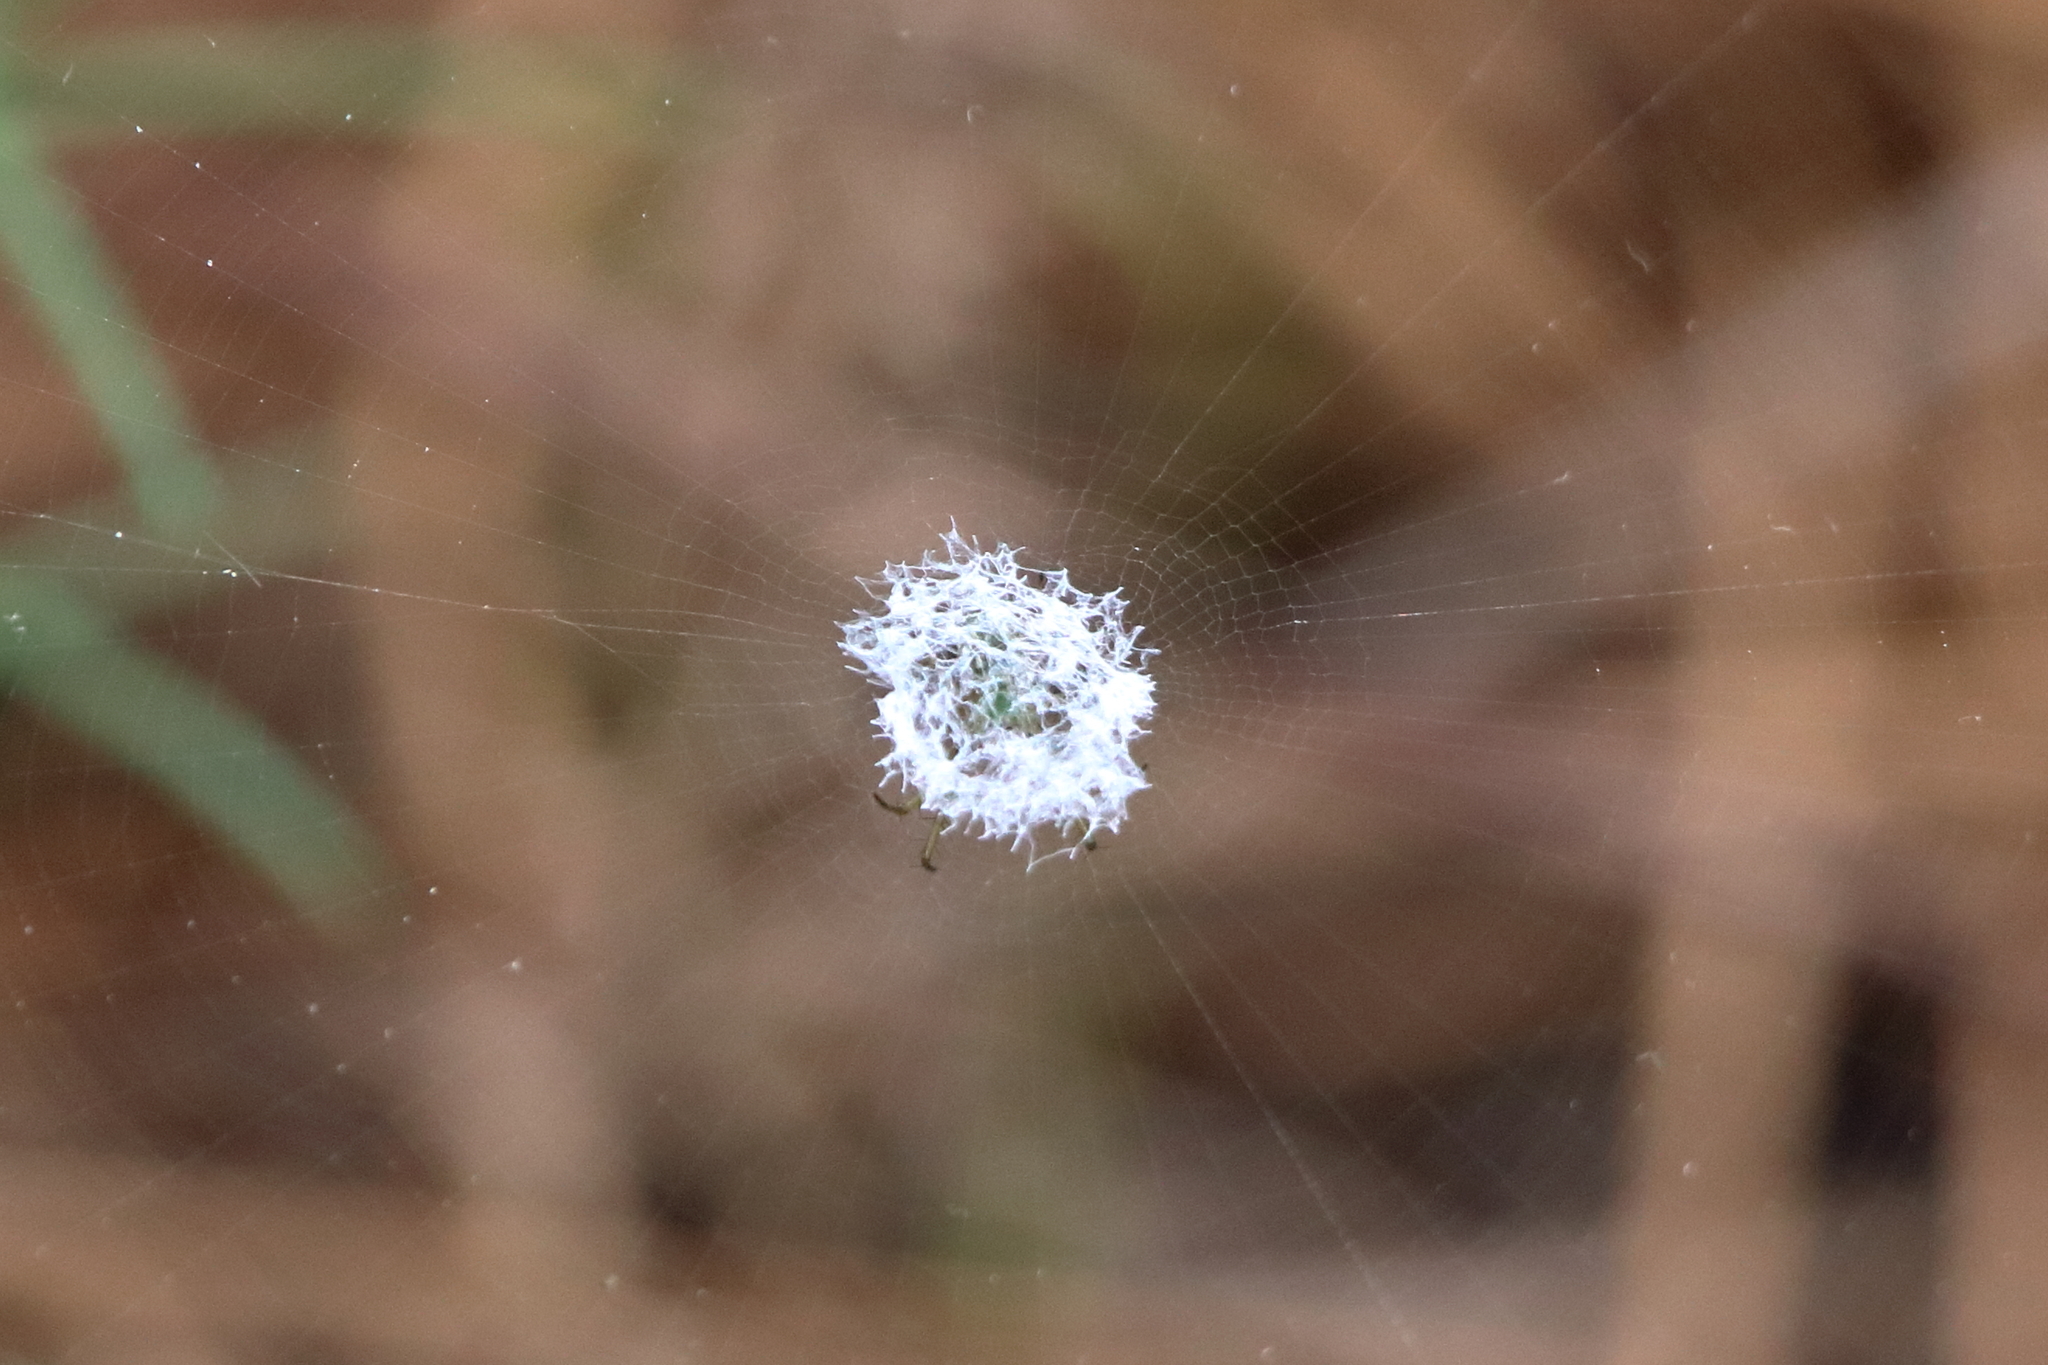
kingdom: Animalia
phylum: Arthropoda
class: Arachnida
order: Araneae
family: Araneidae
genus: Mangora
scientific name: Mangora
